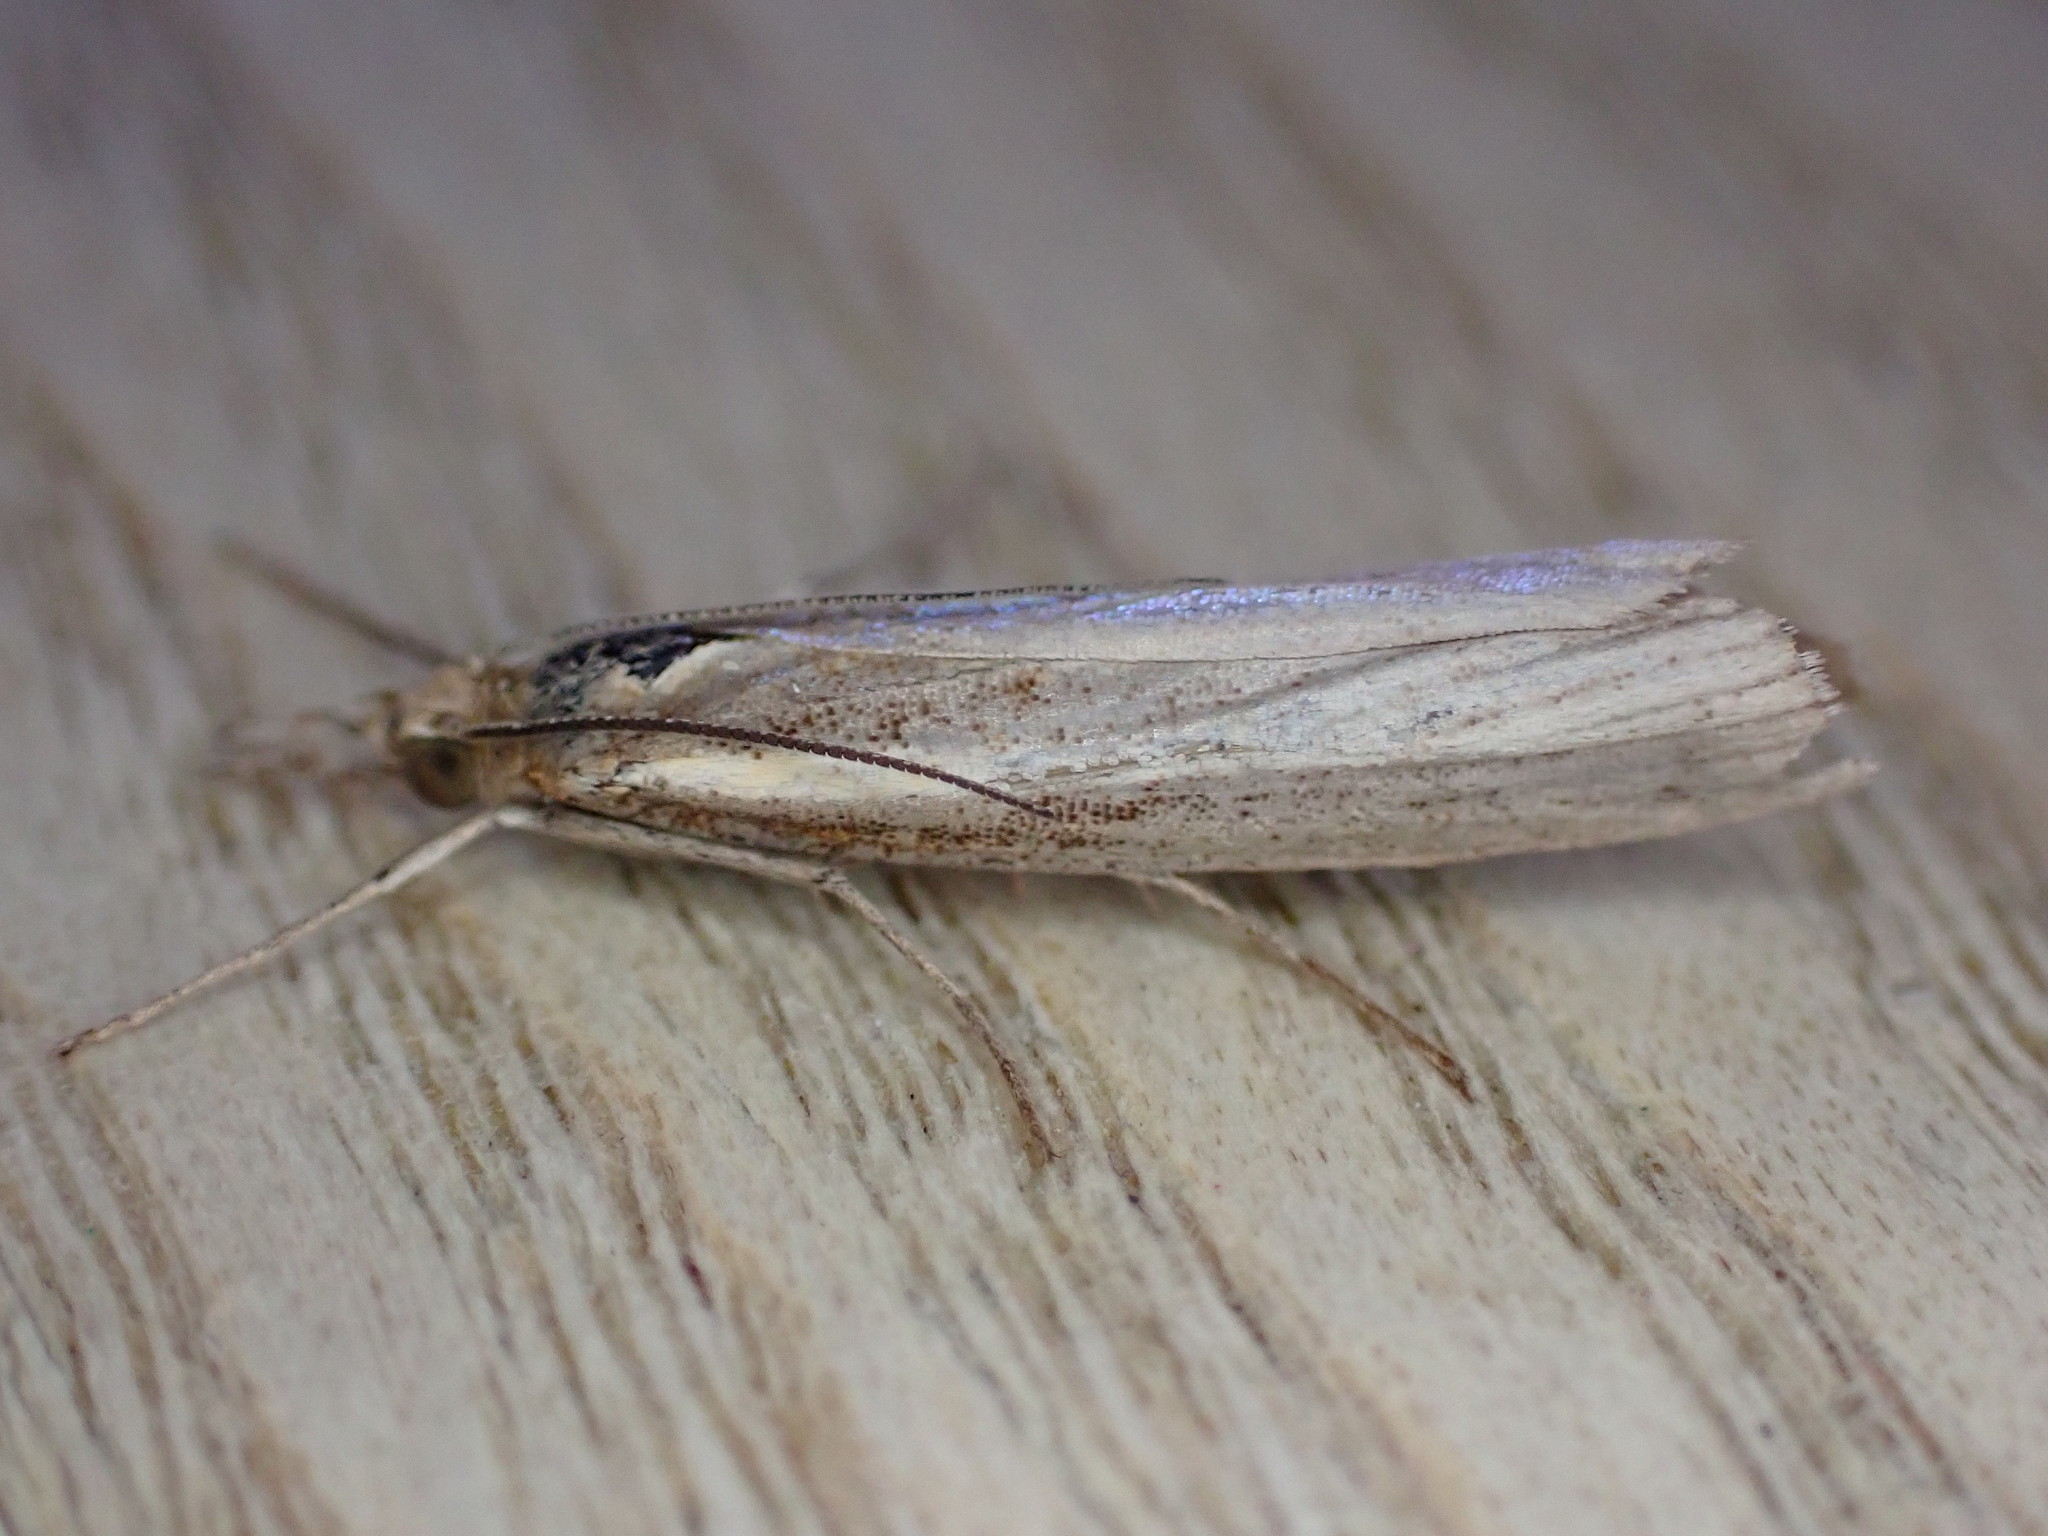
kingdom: Animalia
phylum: Arthropoda
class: Insecta
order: Lepidoptera
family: Crambidae
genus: Agriphila
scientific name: Agriphila straminella
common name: Straw grass-veneer
